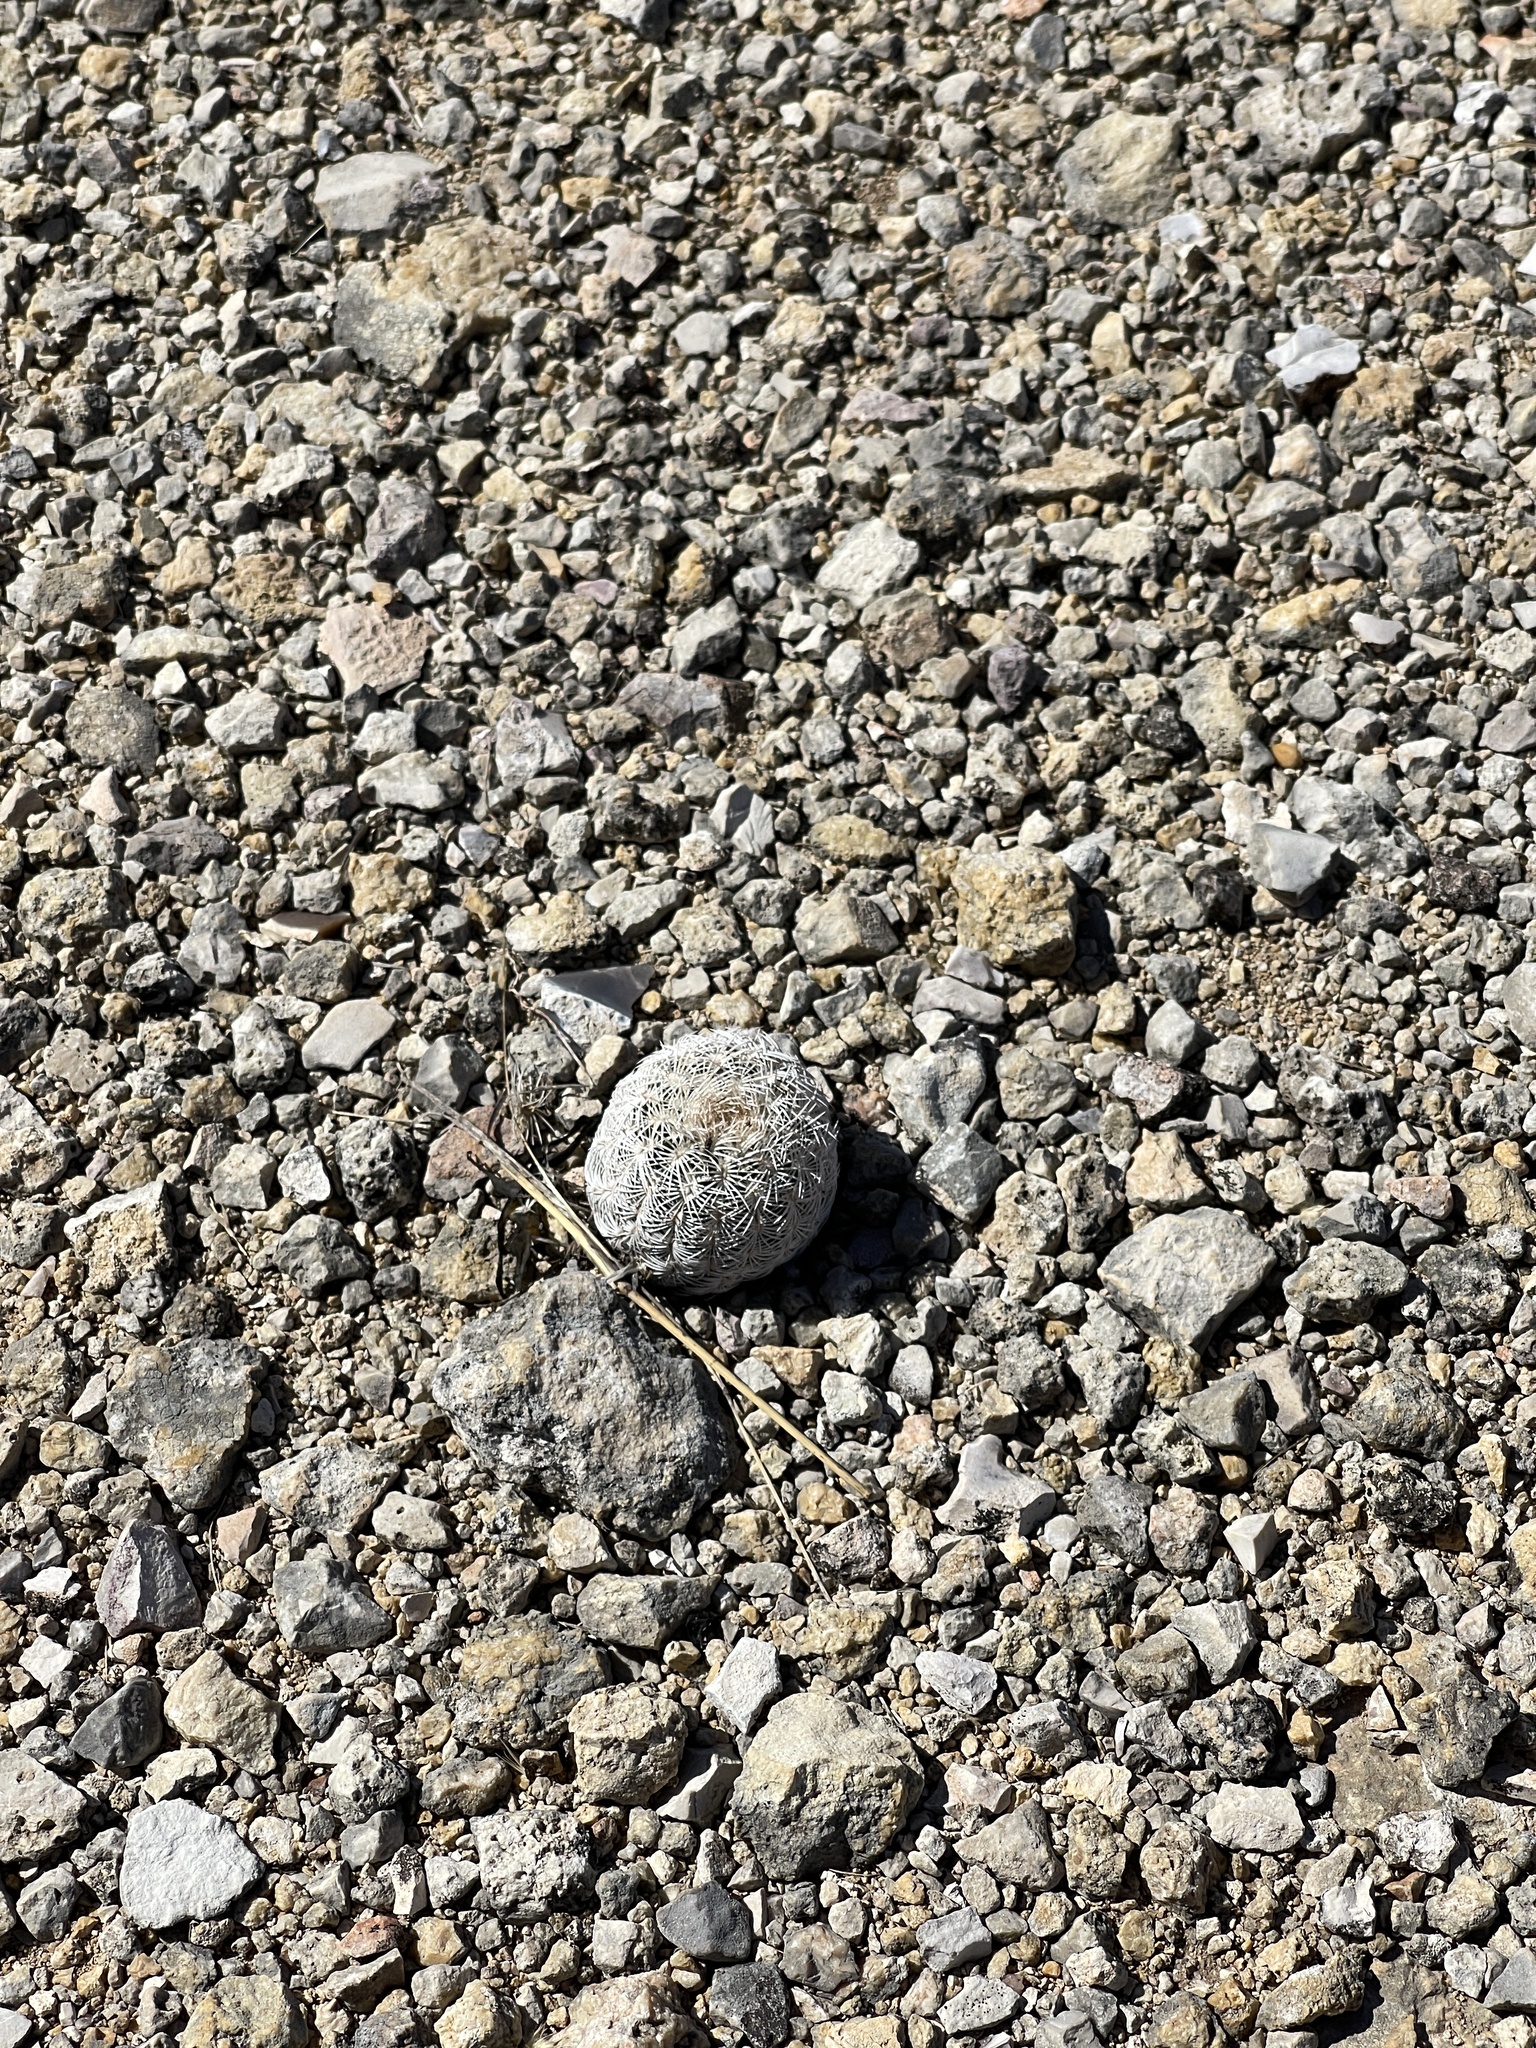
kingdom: Plantae
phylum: Tracheophyta
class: Magnoliopsida
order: Caryophyllales
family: Cactaceae
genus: Echinocereus
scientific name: Echinocereus reichenbachii
